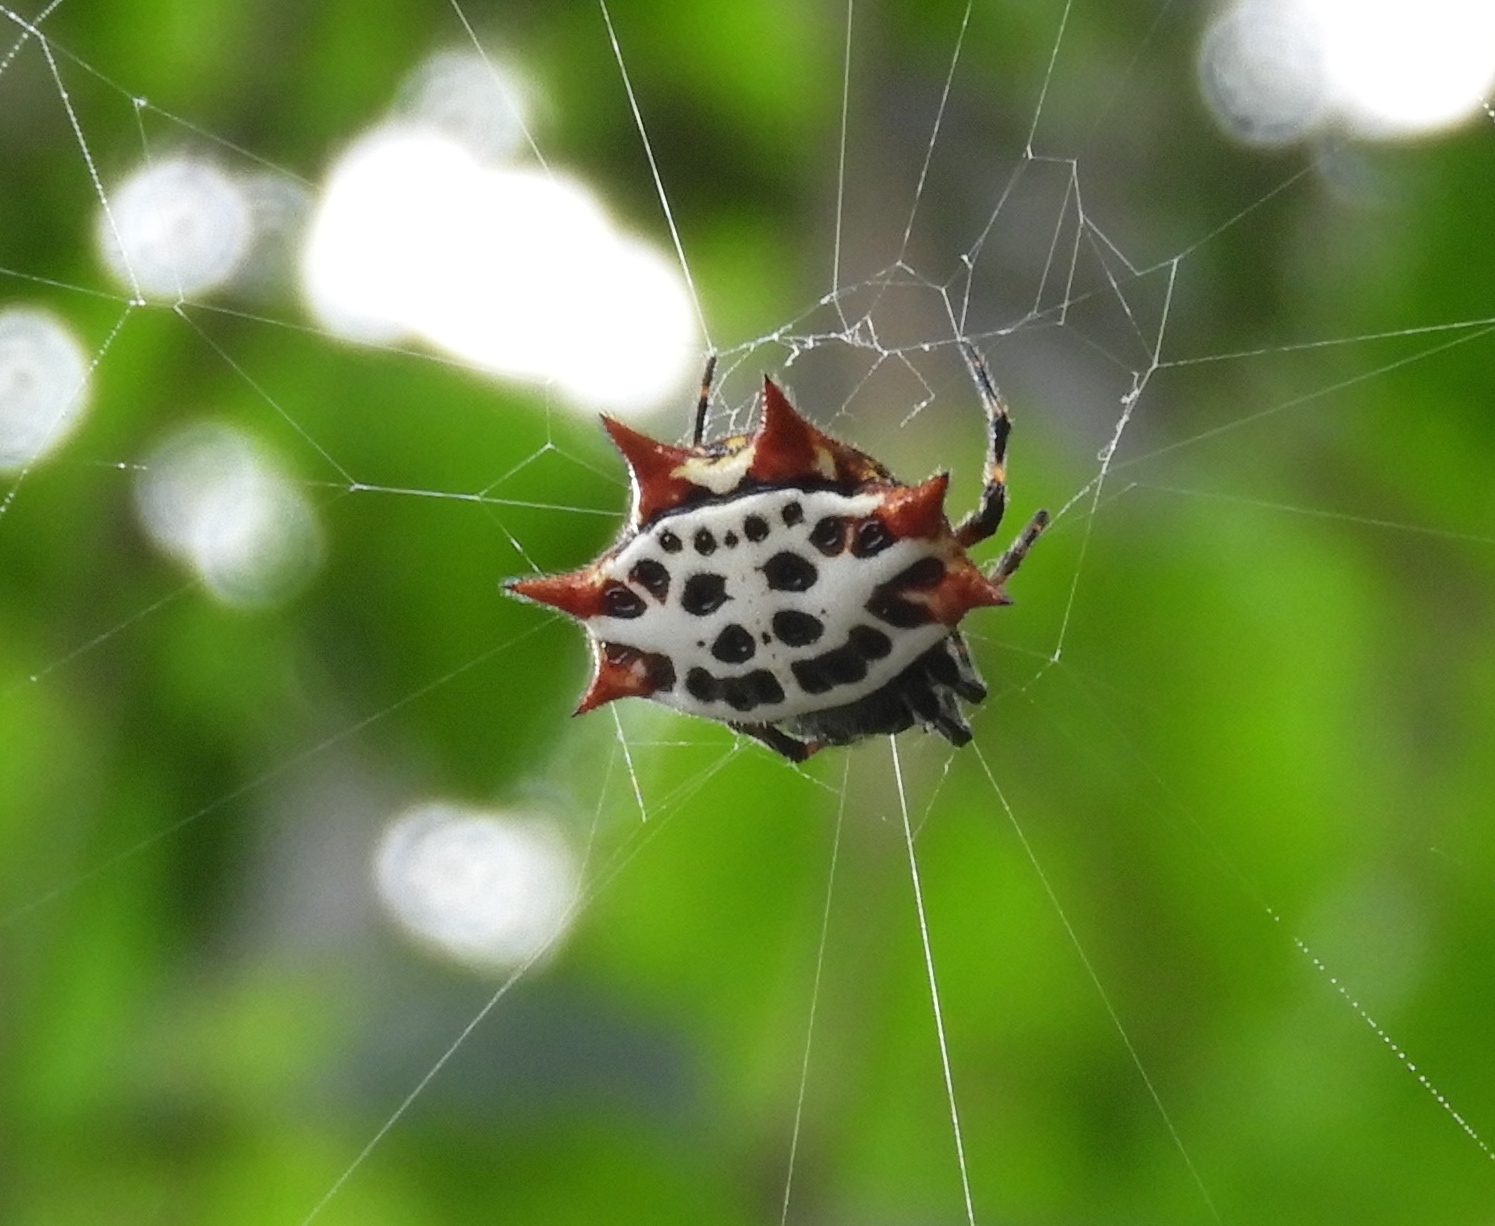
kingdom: Animalia
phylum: Arthropoda
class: Arachnida
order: Araneae
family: Araneidae
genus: Gasteracantha
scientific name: Gasteracantha cancriformis
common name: Orb weavers
